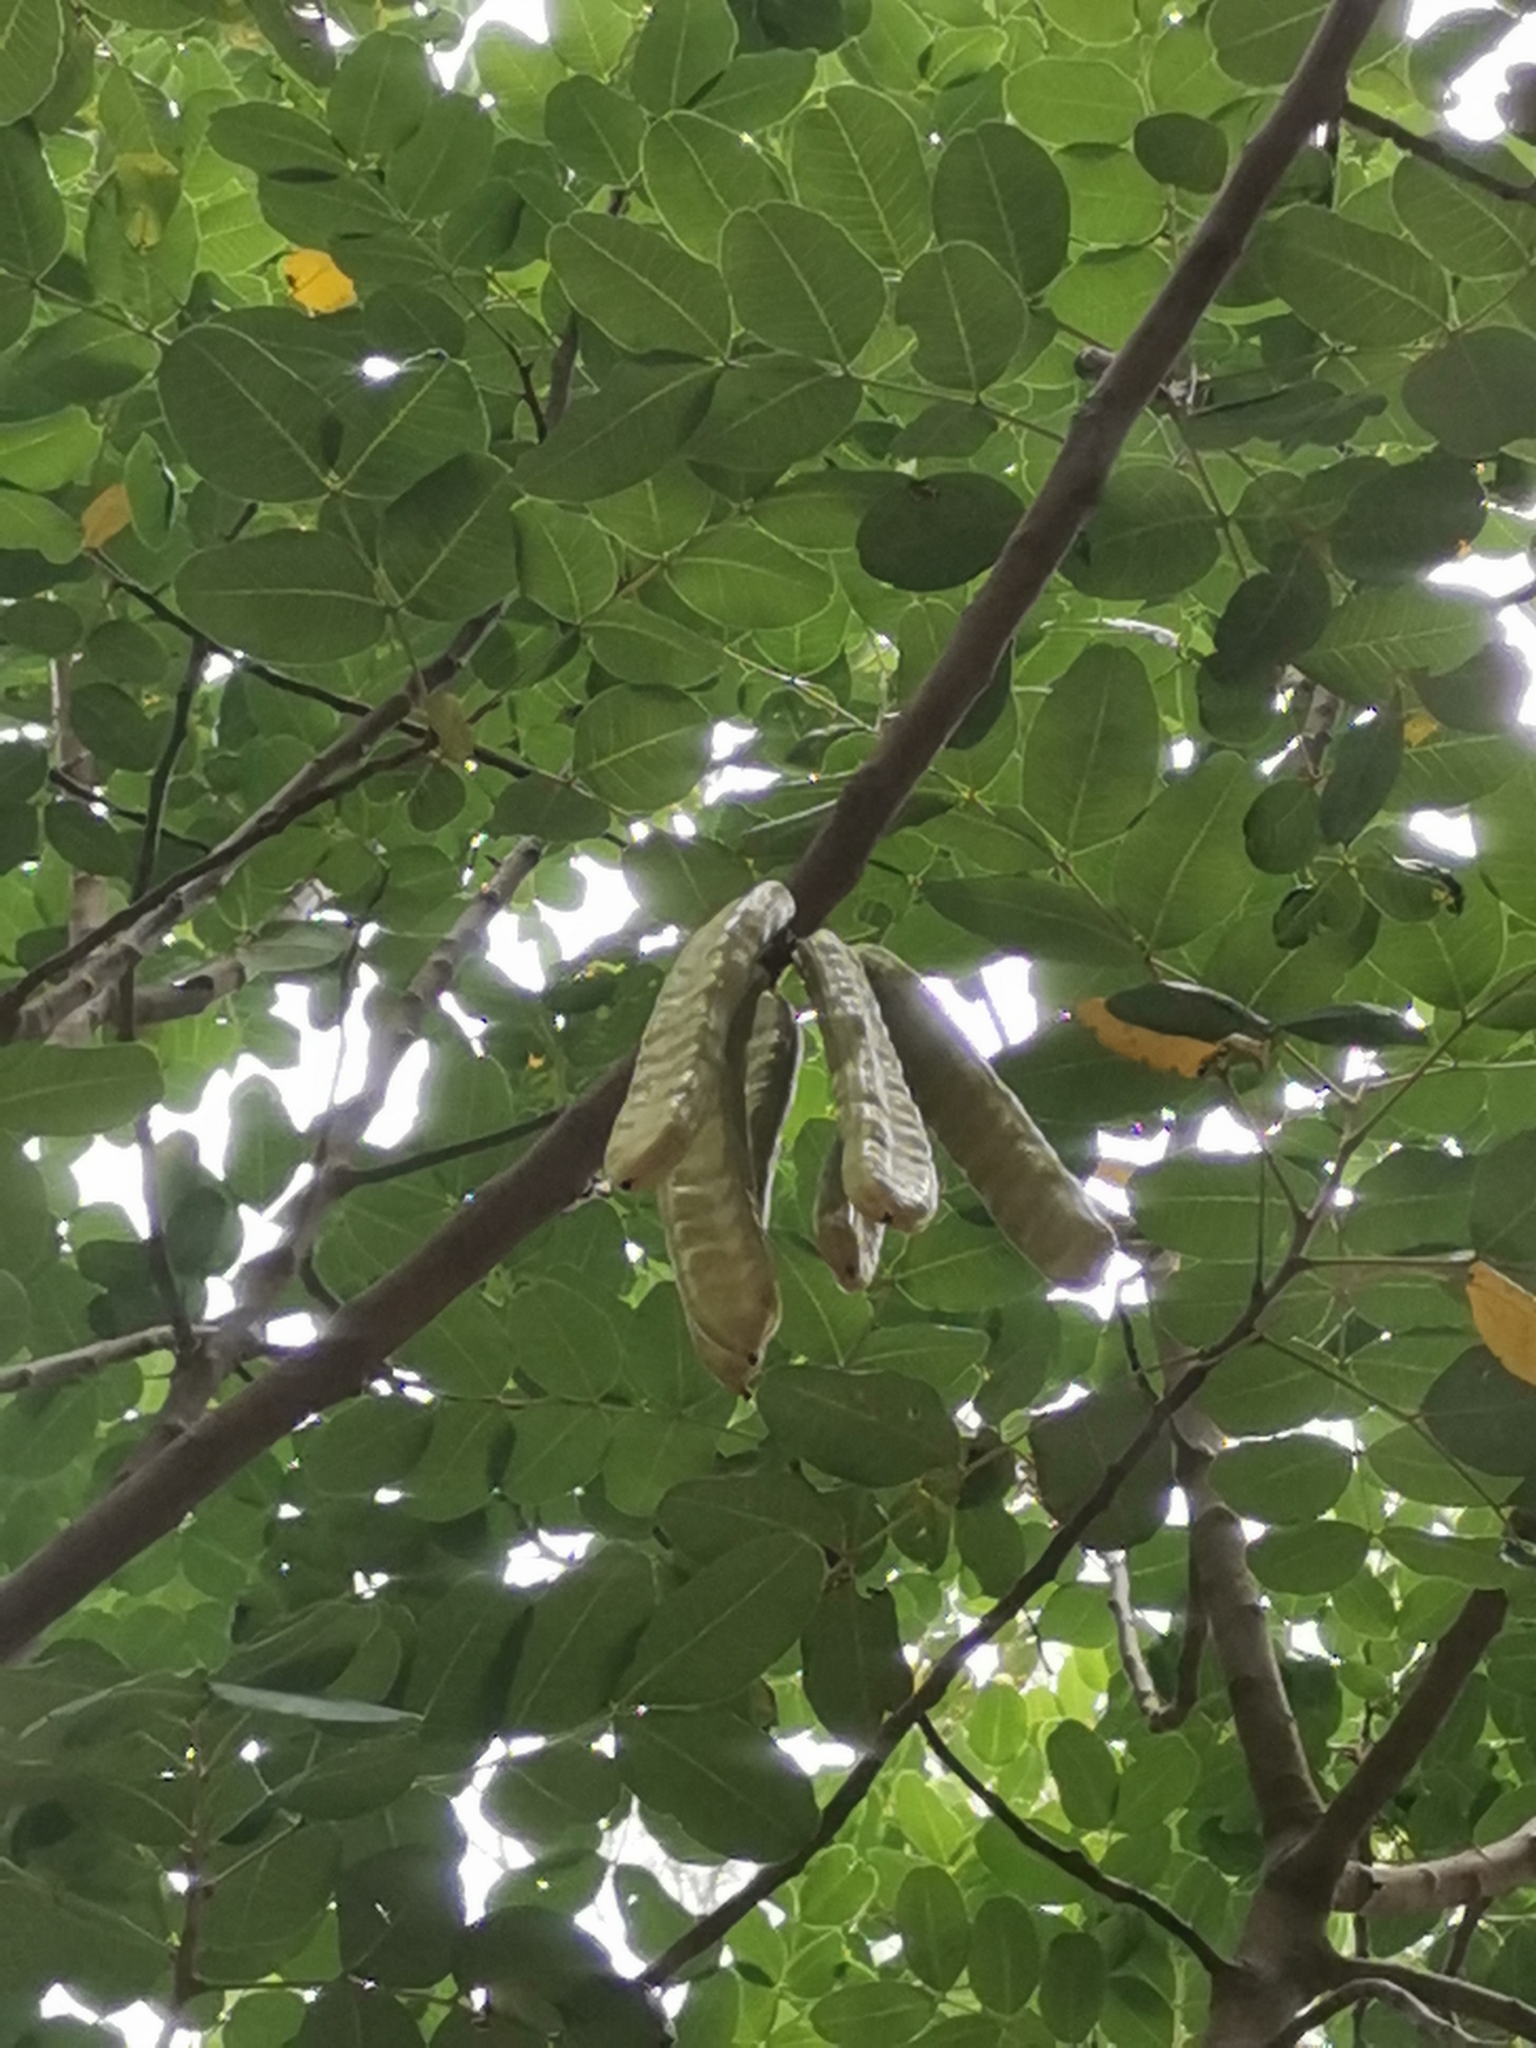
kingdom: Plantae
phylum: Tracheophyta
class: Magnoliopsida
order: Fabales
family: Fabaceae
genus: Ceratonia
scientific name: Ceratonia siliqua
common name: Carob
